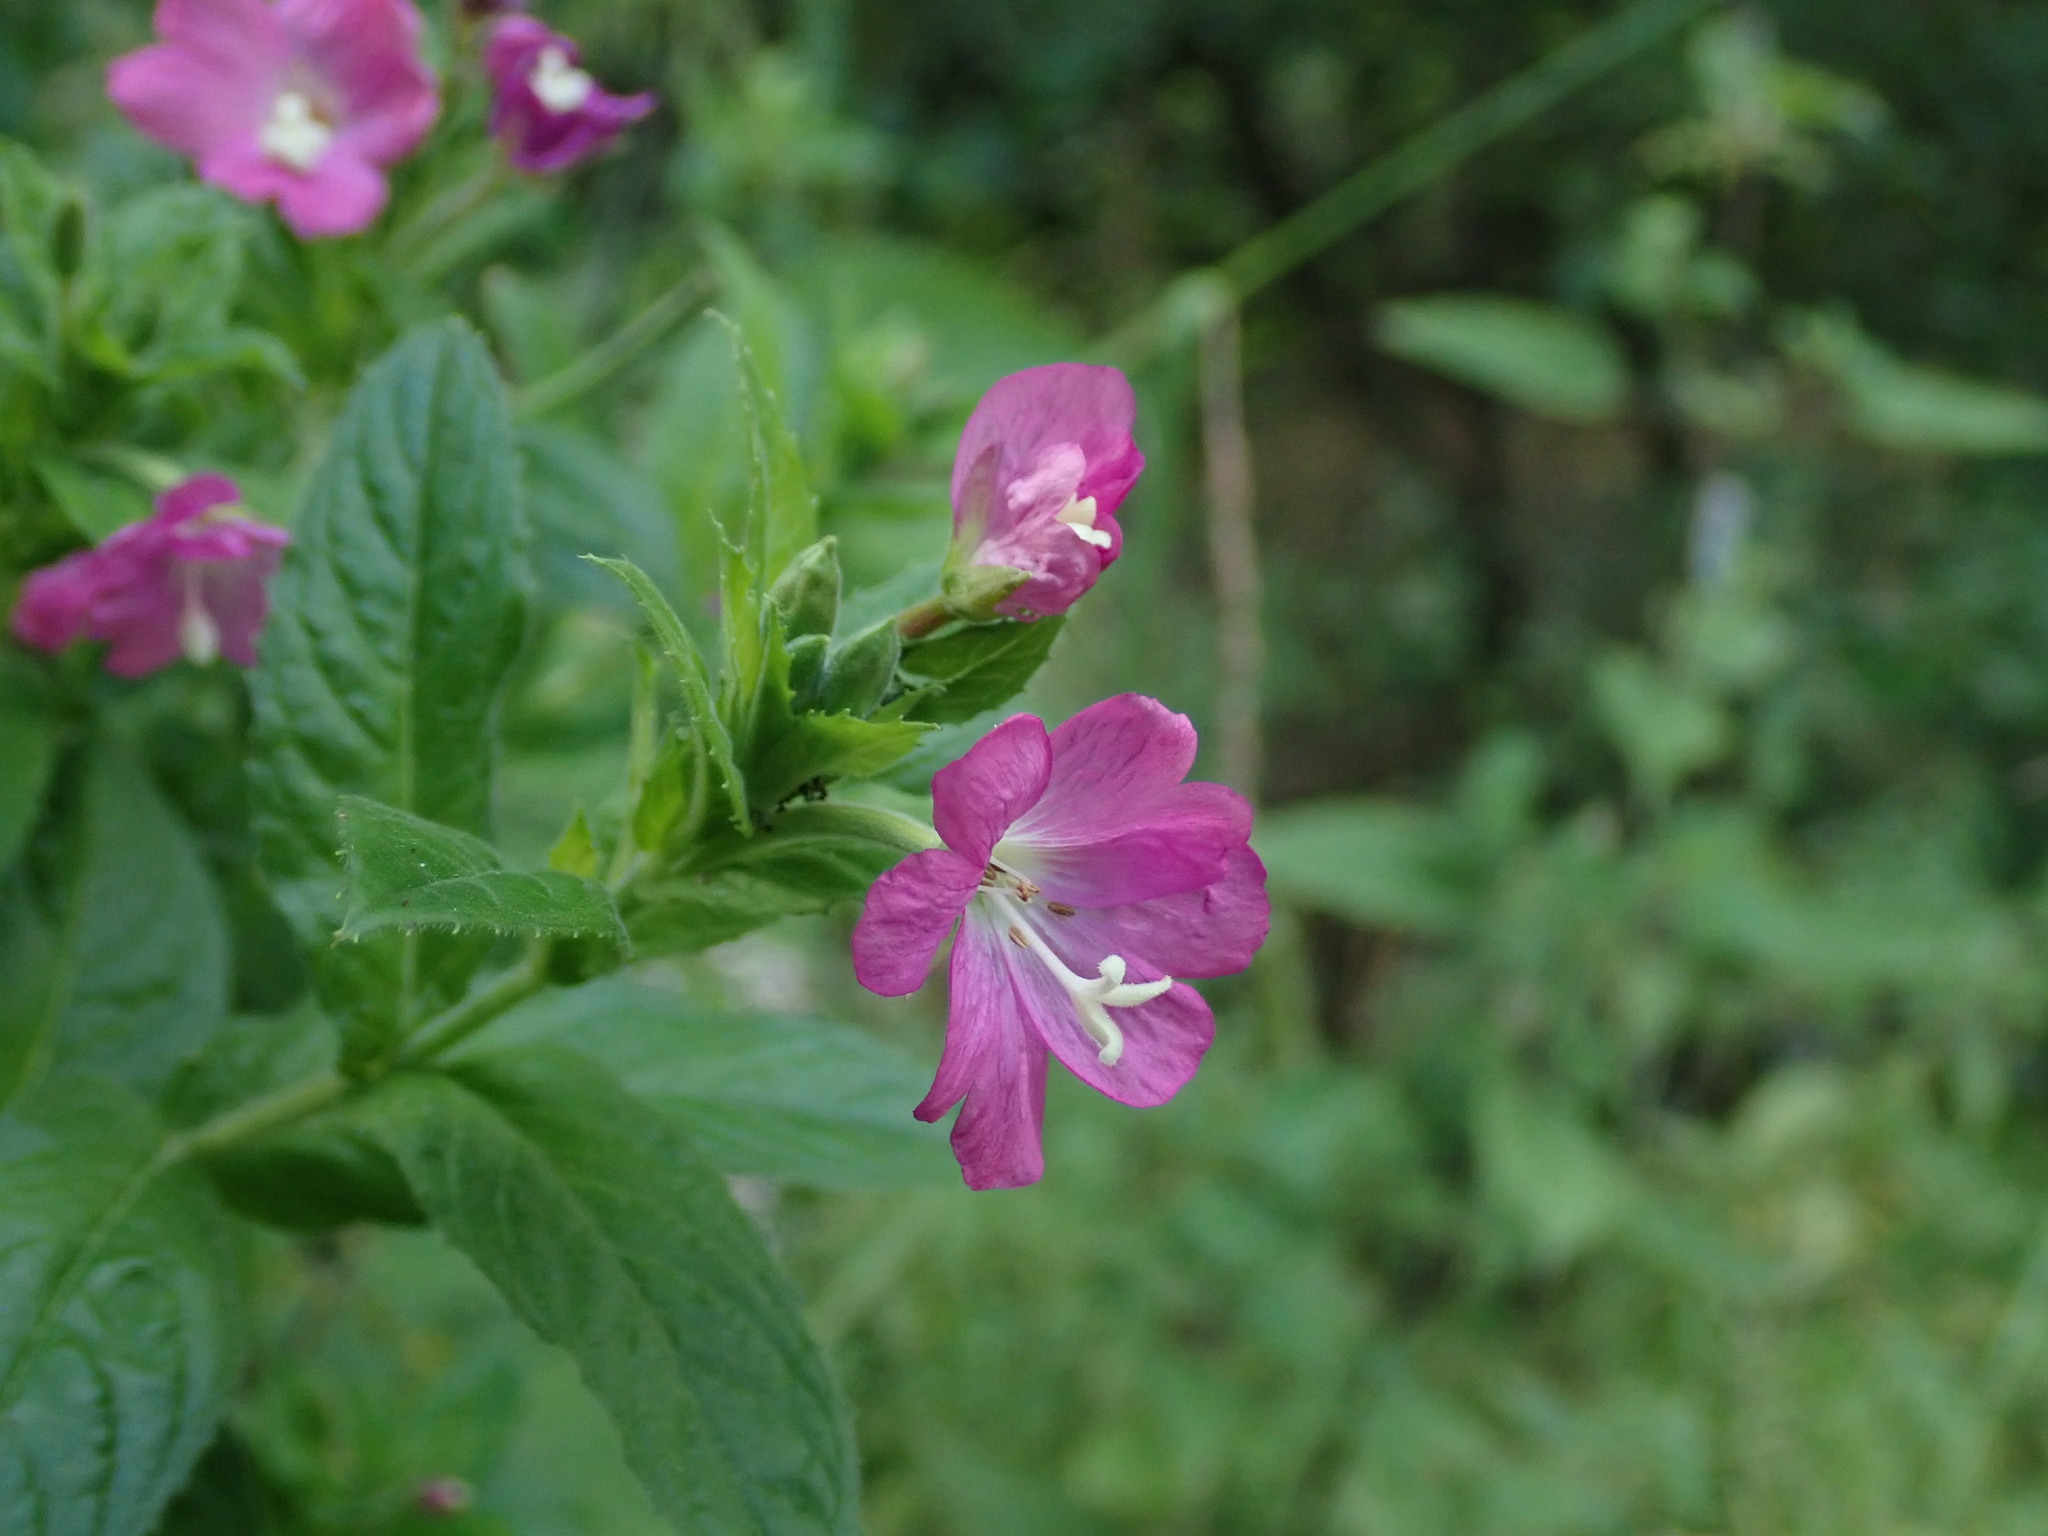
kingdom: Plantae
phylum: Tracheophyta
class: Magnoliopsida
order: Myrtales
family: Onagraceae
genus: Epilobium
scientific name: Epilobium hirsutum
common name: Great willowherb
